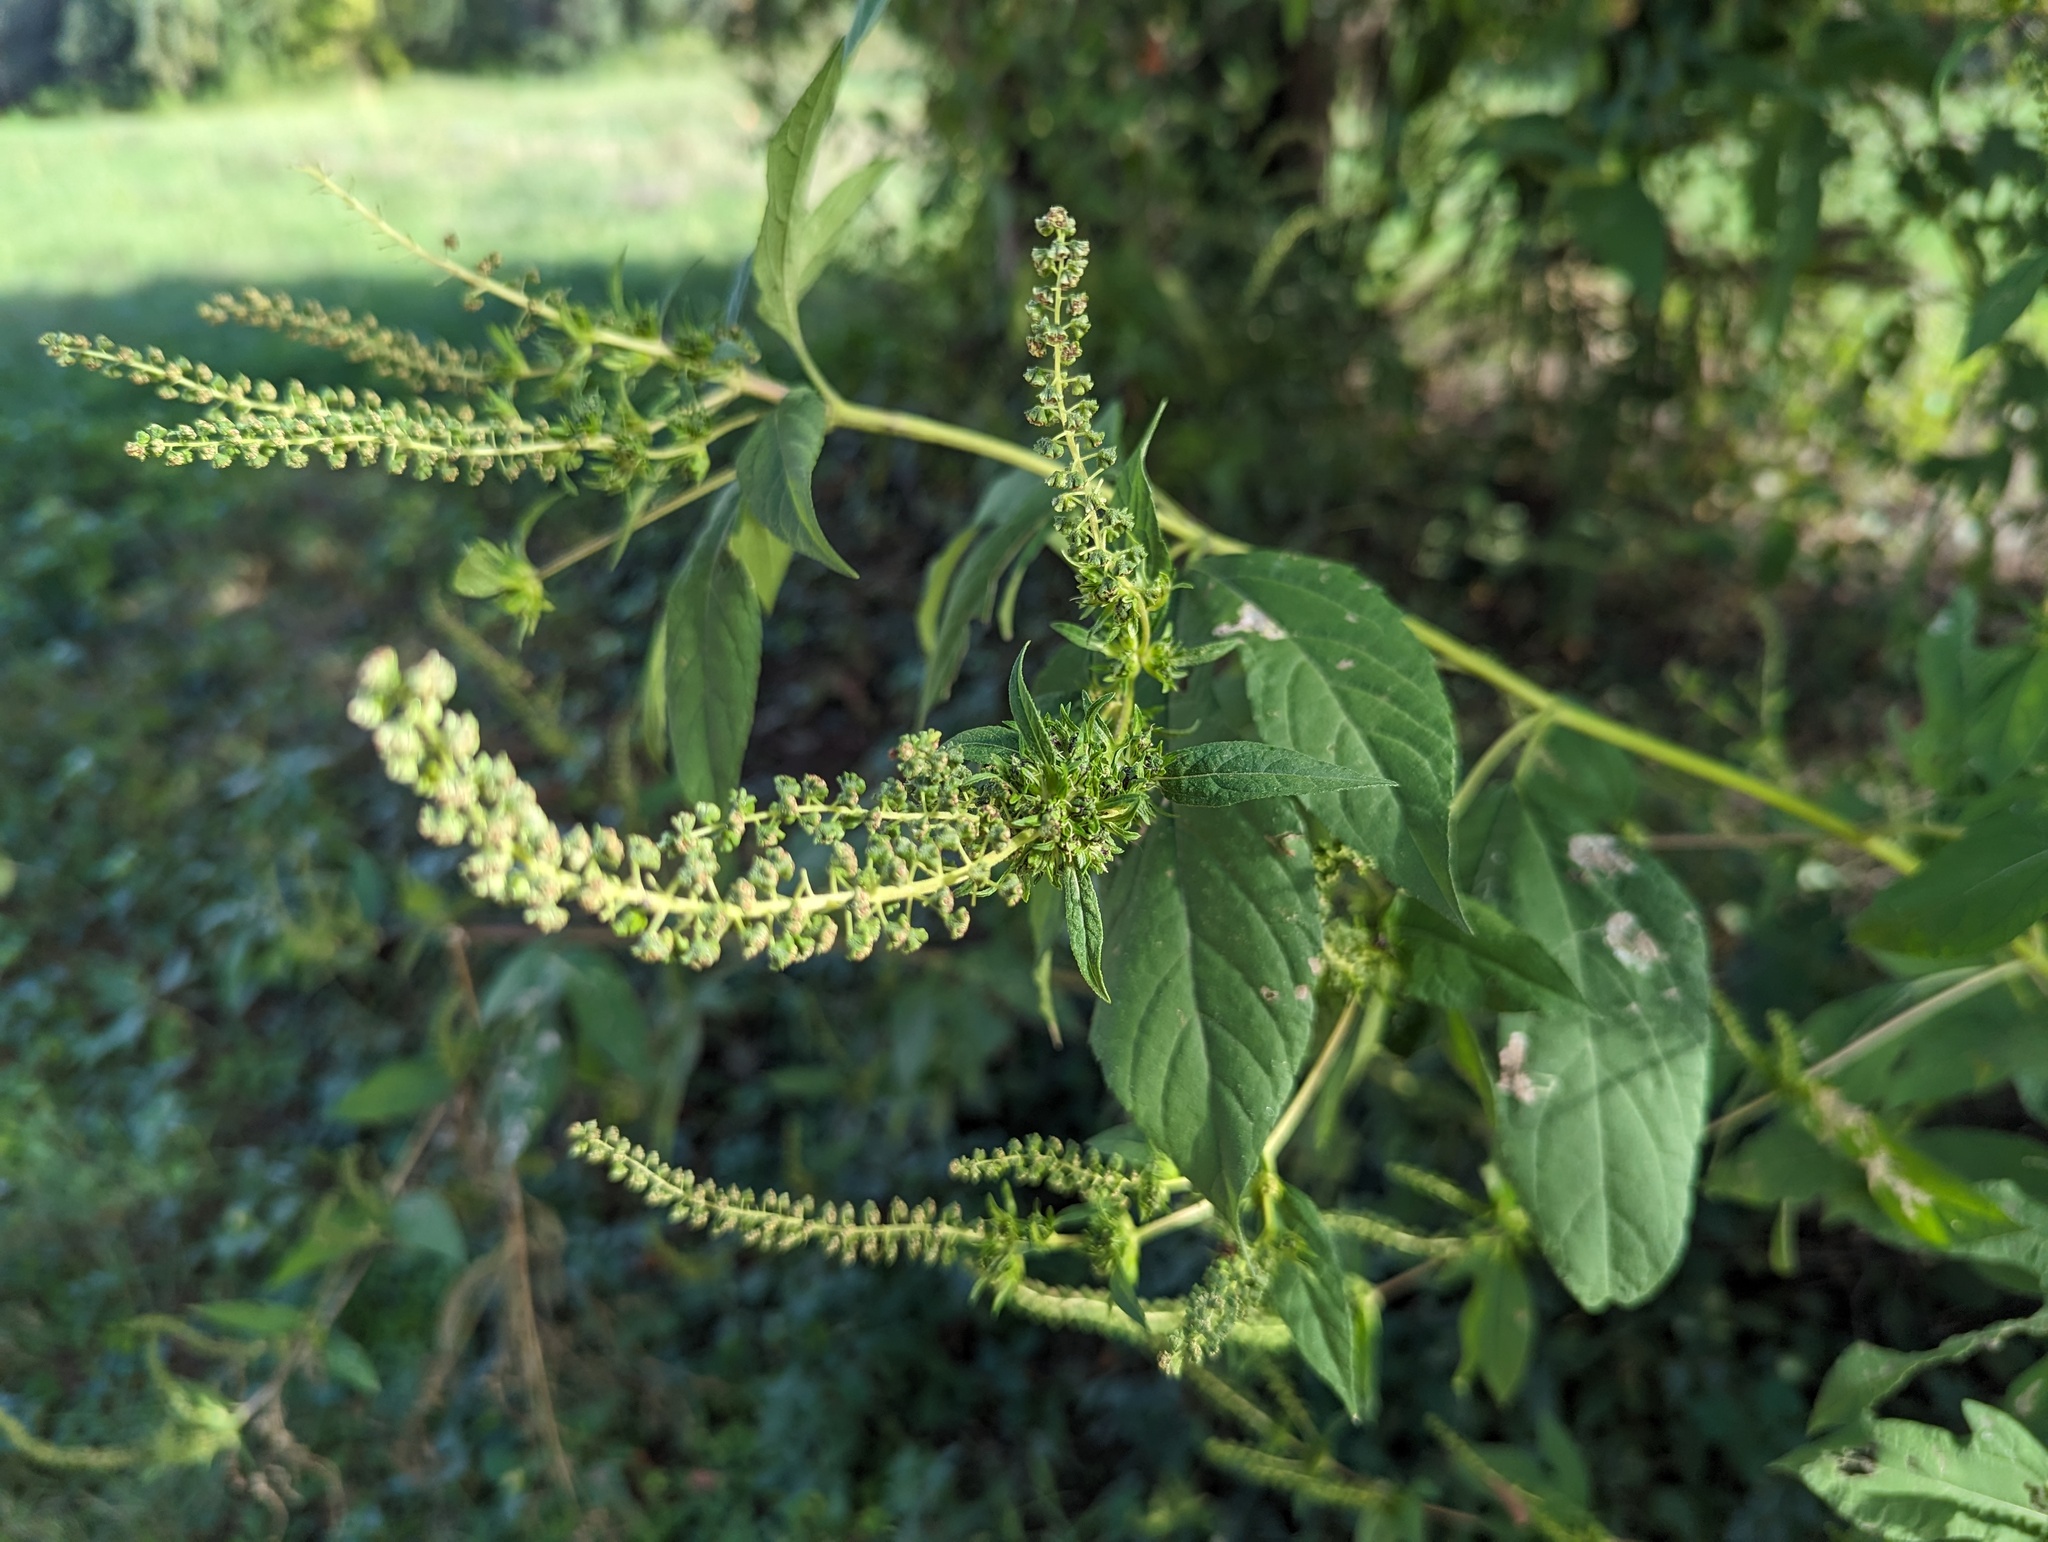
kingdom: Plantae
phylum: Tracheophyta
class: Magnoliopsida
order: Asterales
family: Asteraceae
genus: Ambrosia
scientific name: Ambrosia trifida
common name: Giant ragweed
